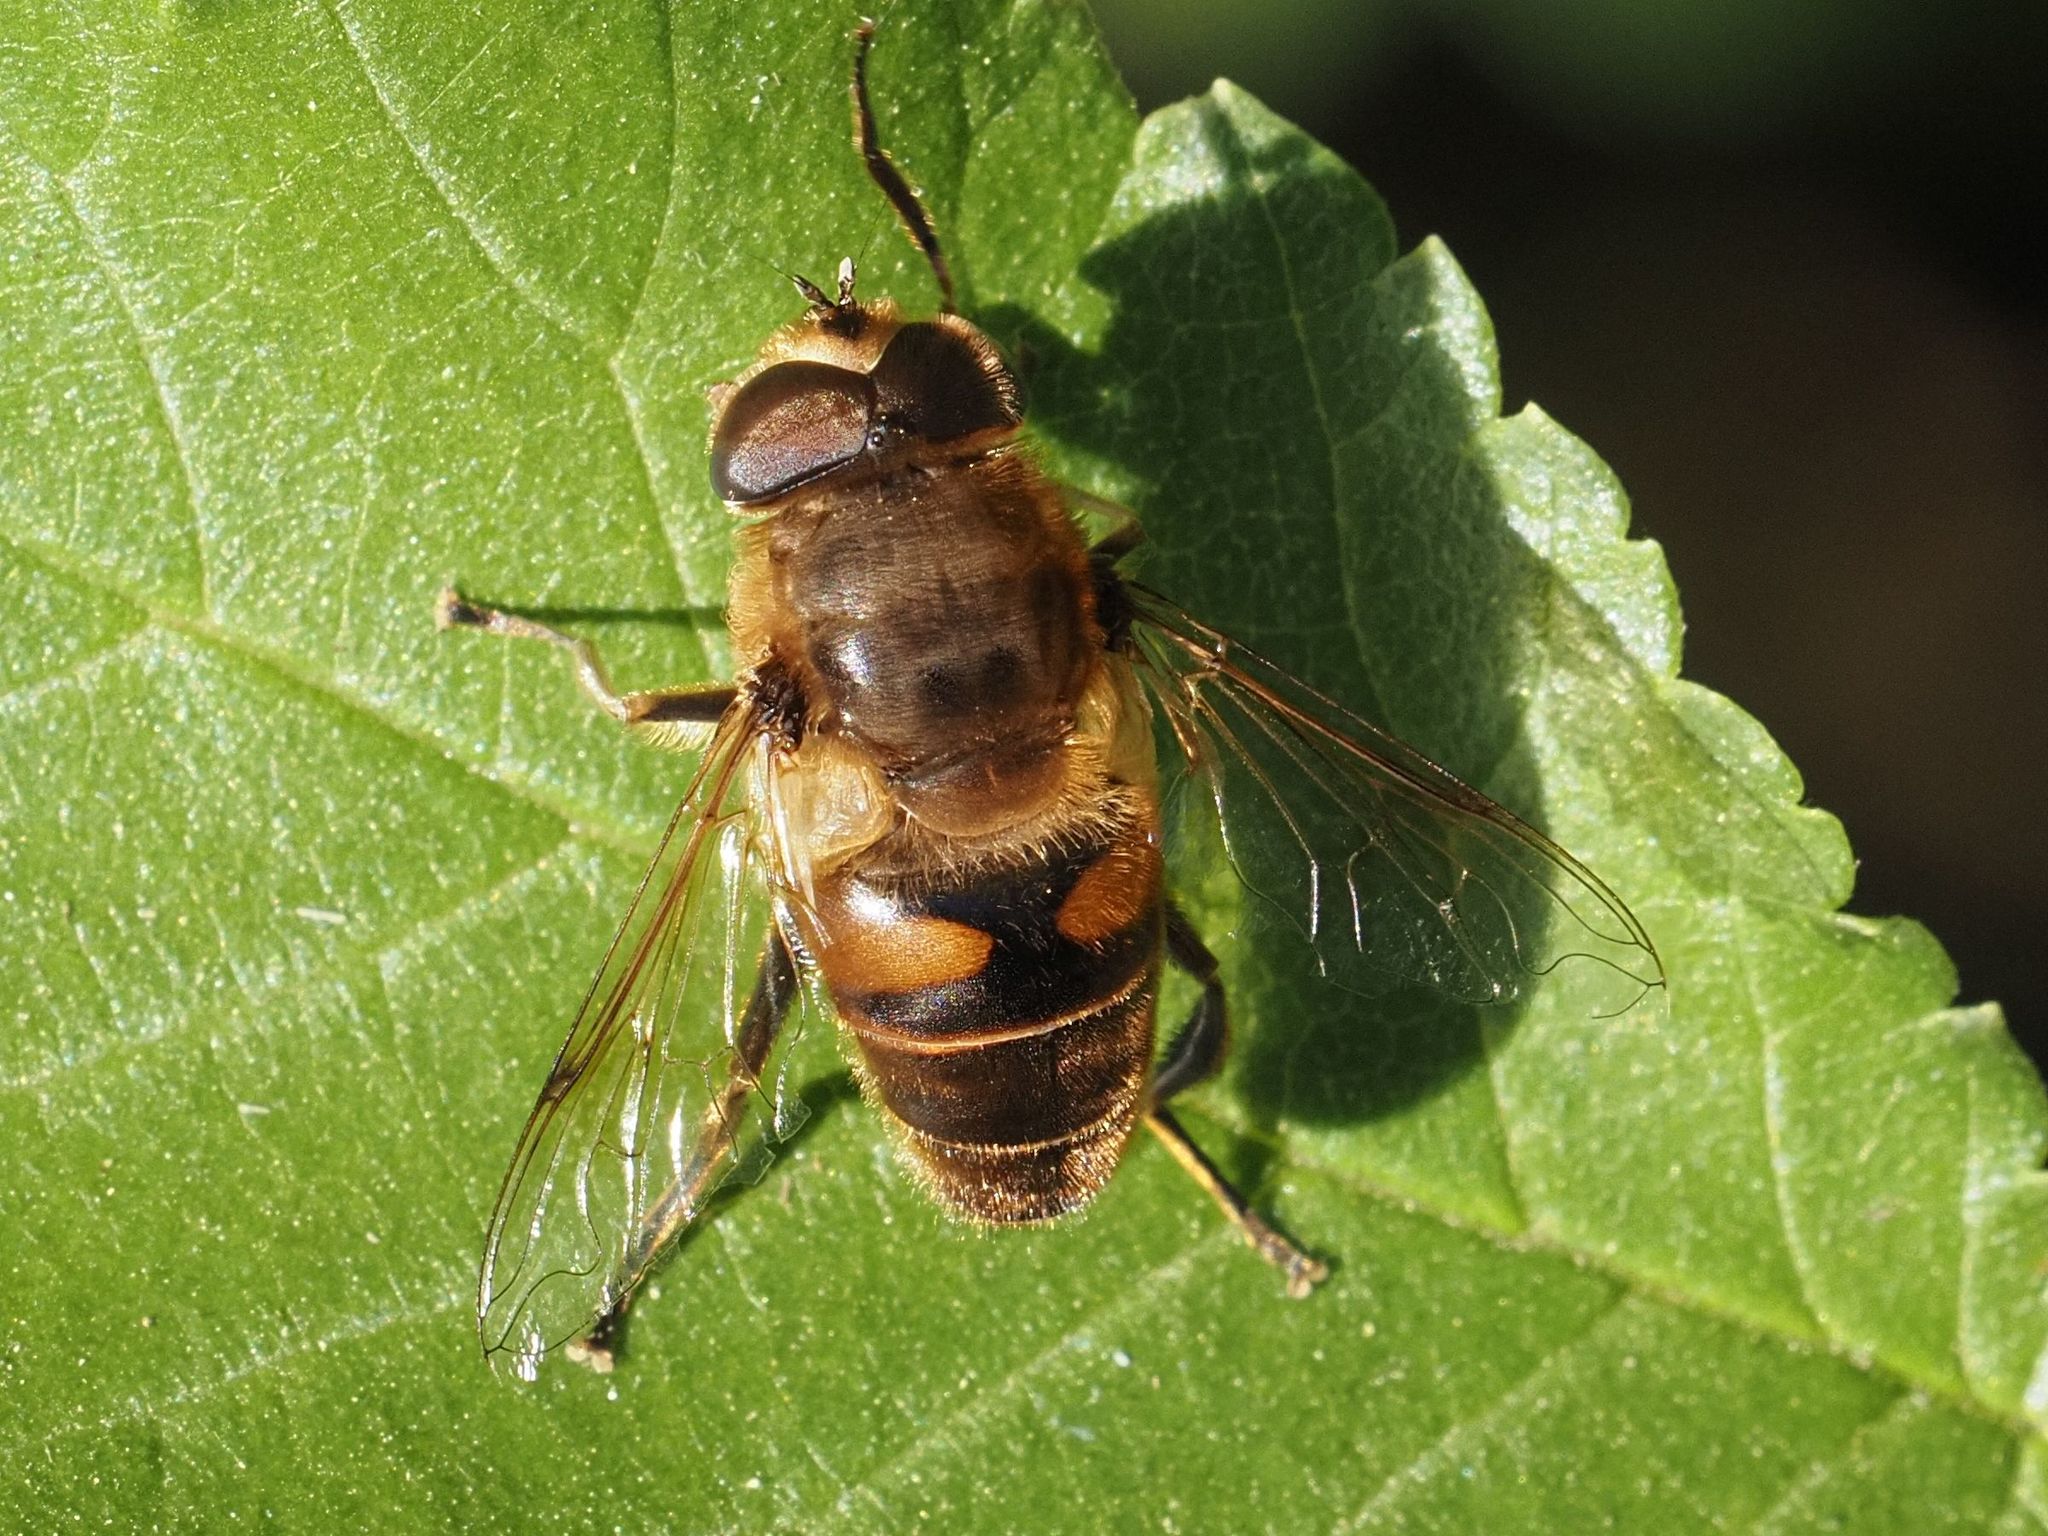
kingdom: Animalia
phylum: Arthropoda
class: Insecta
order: Diptera
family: Syrphidae
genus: Eristalis
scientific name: Eristalis tenax
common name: Drone fly
